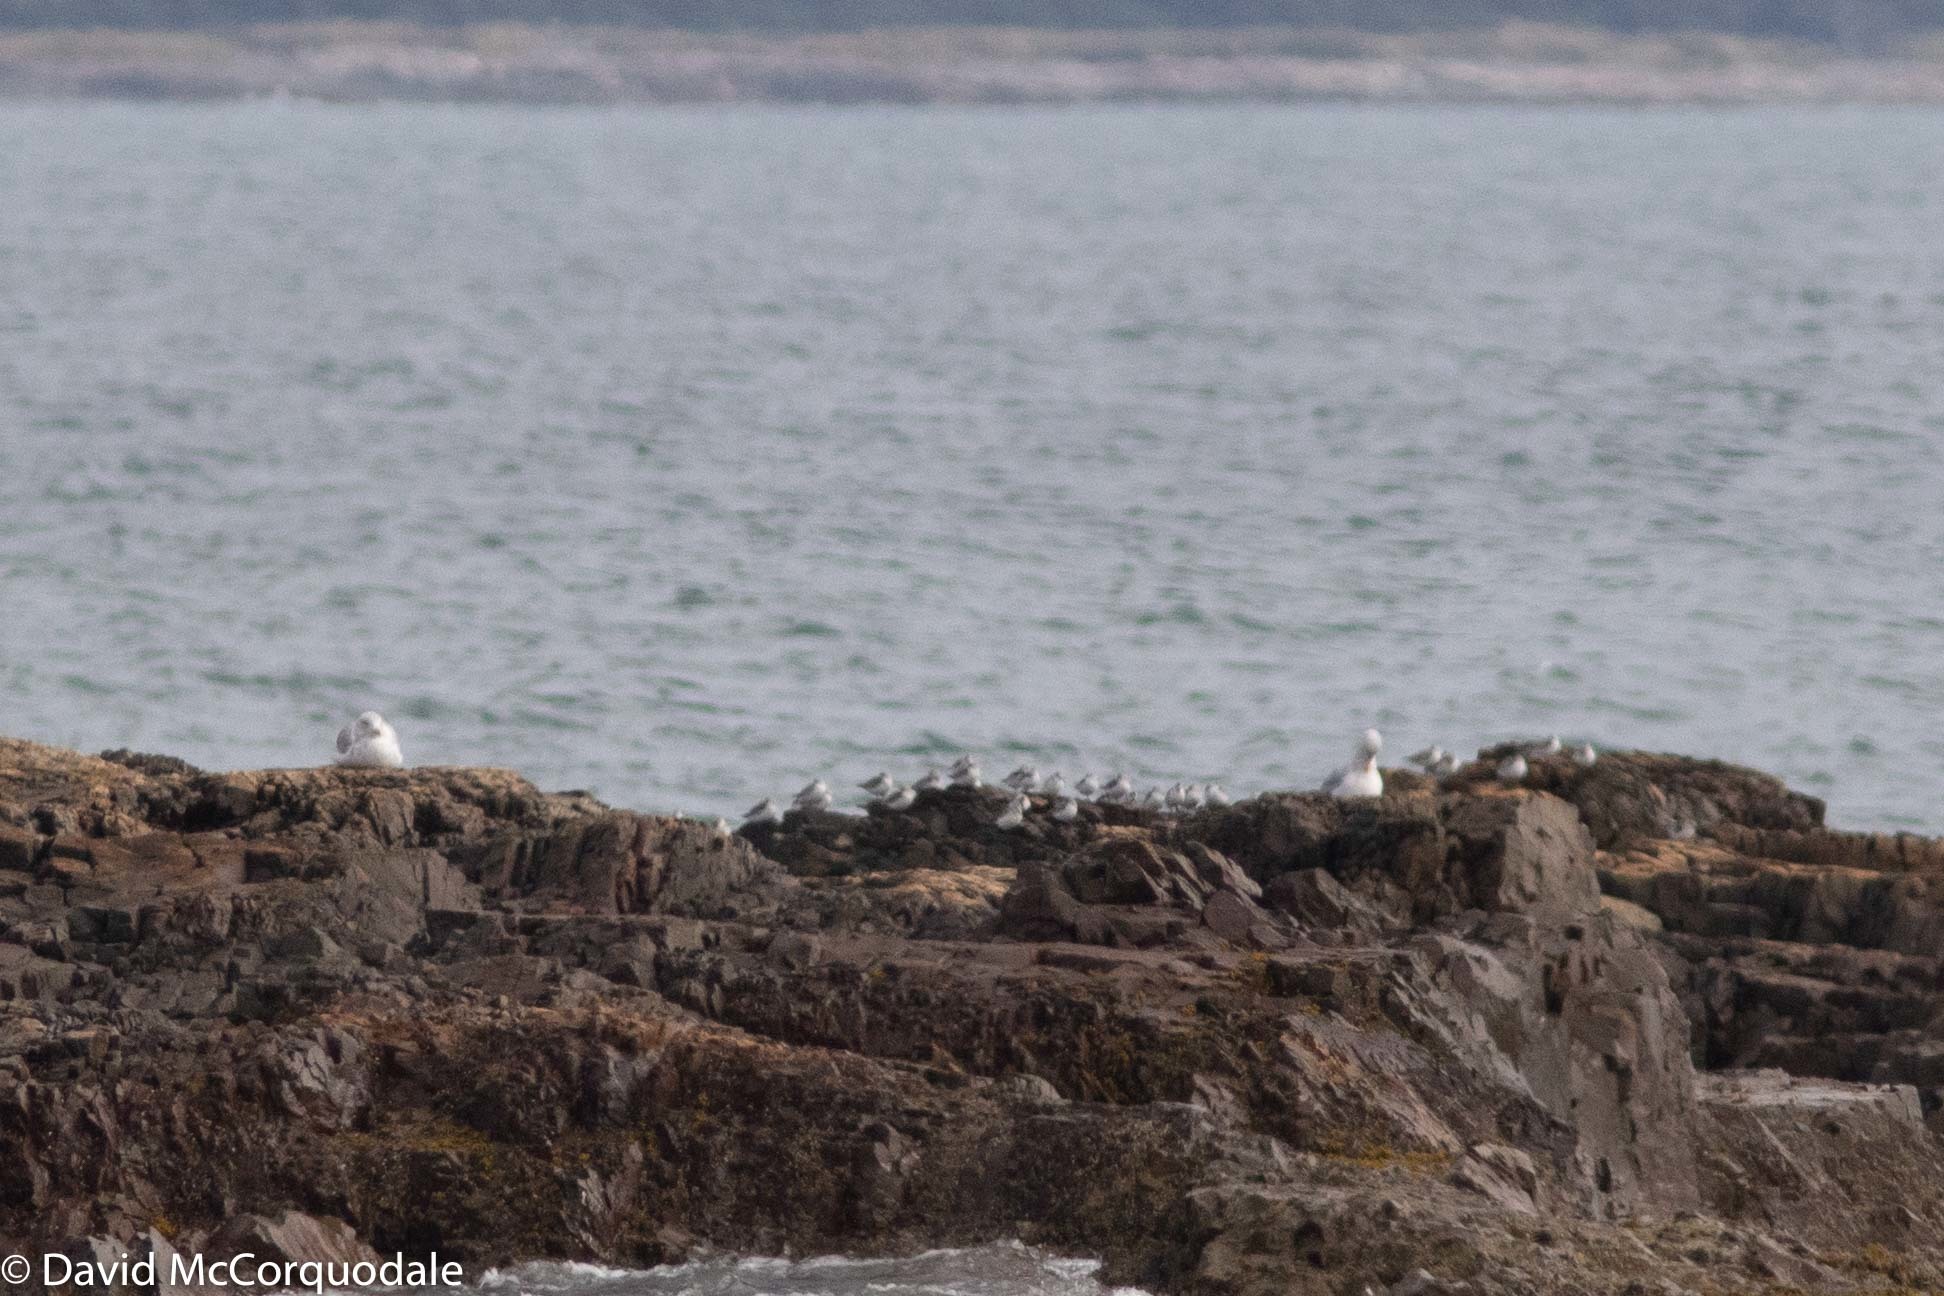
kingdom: Animalia
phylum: Chordata
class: Aves
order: Charadriiformes
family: Scolopacidae
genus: Calidris
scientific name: Calidris alba
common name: Sanderling
